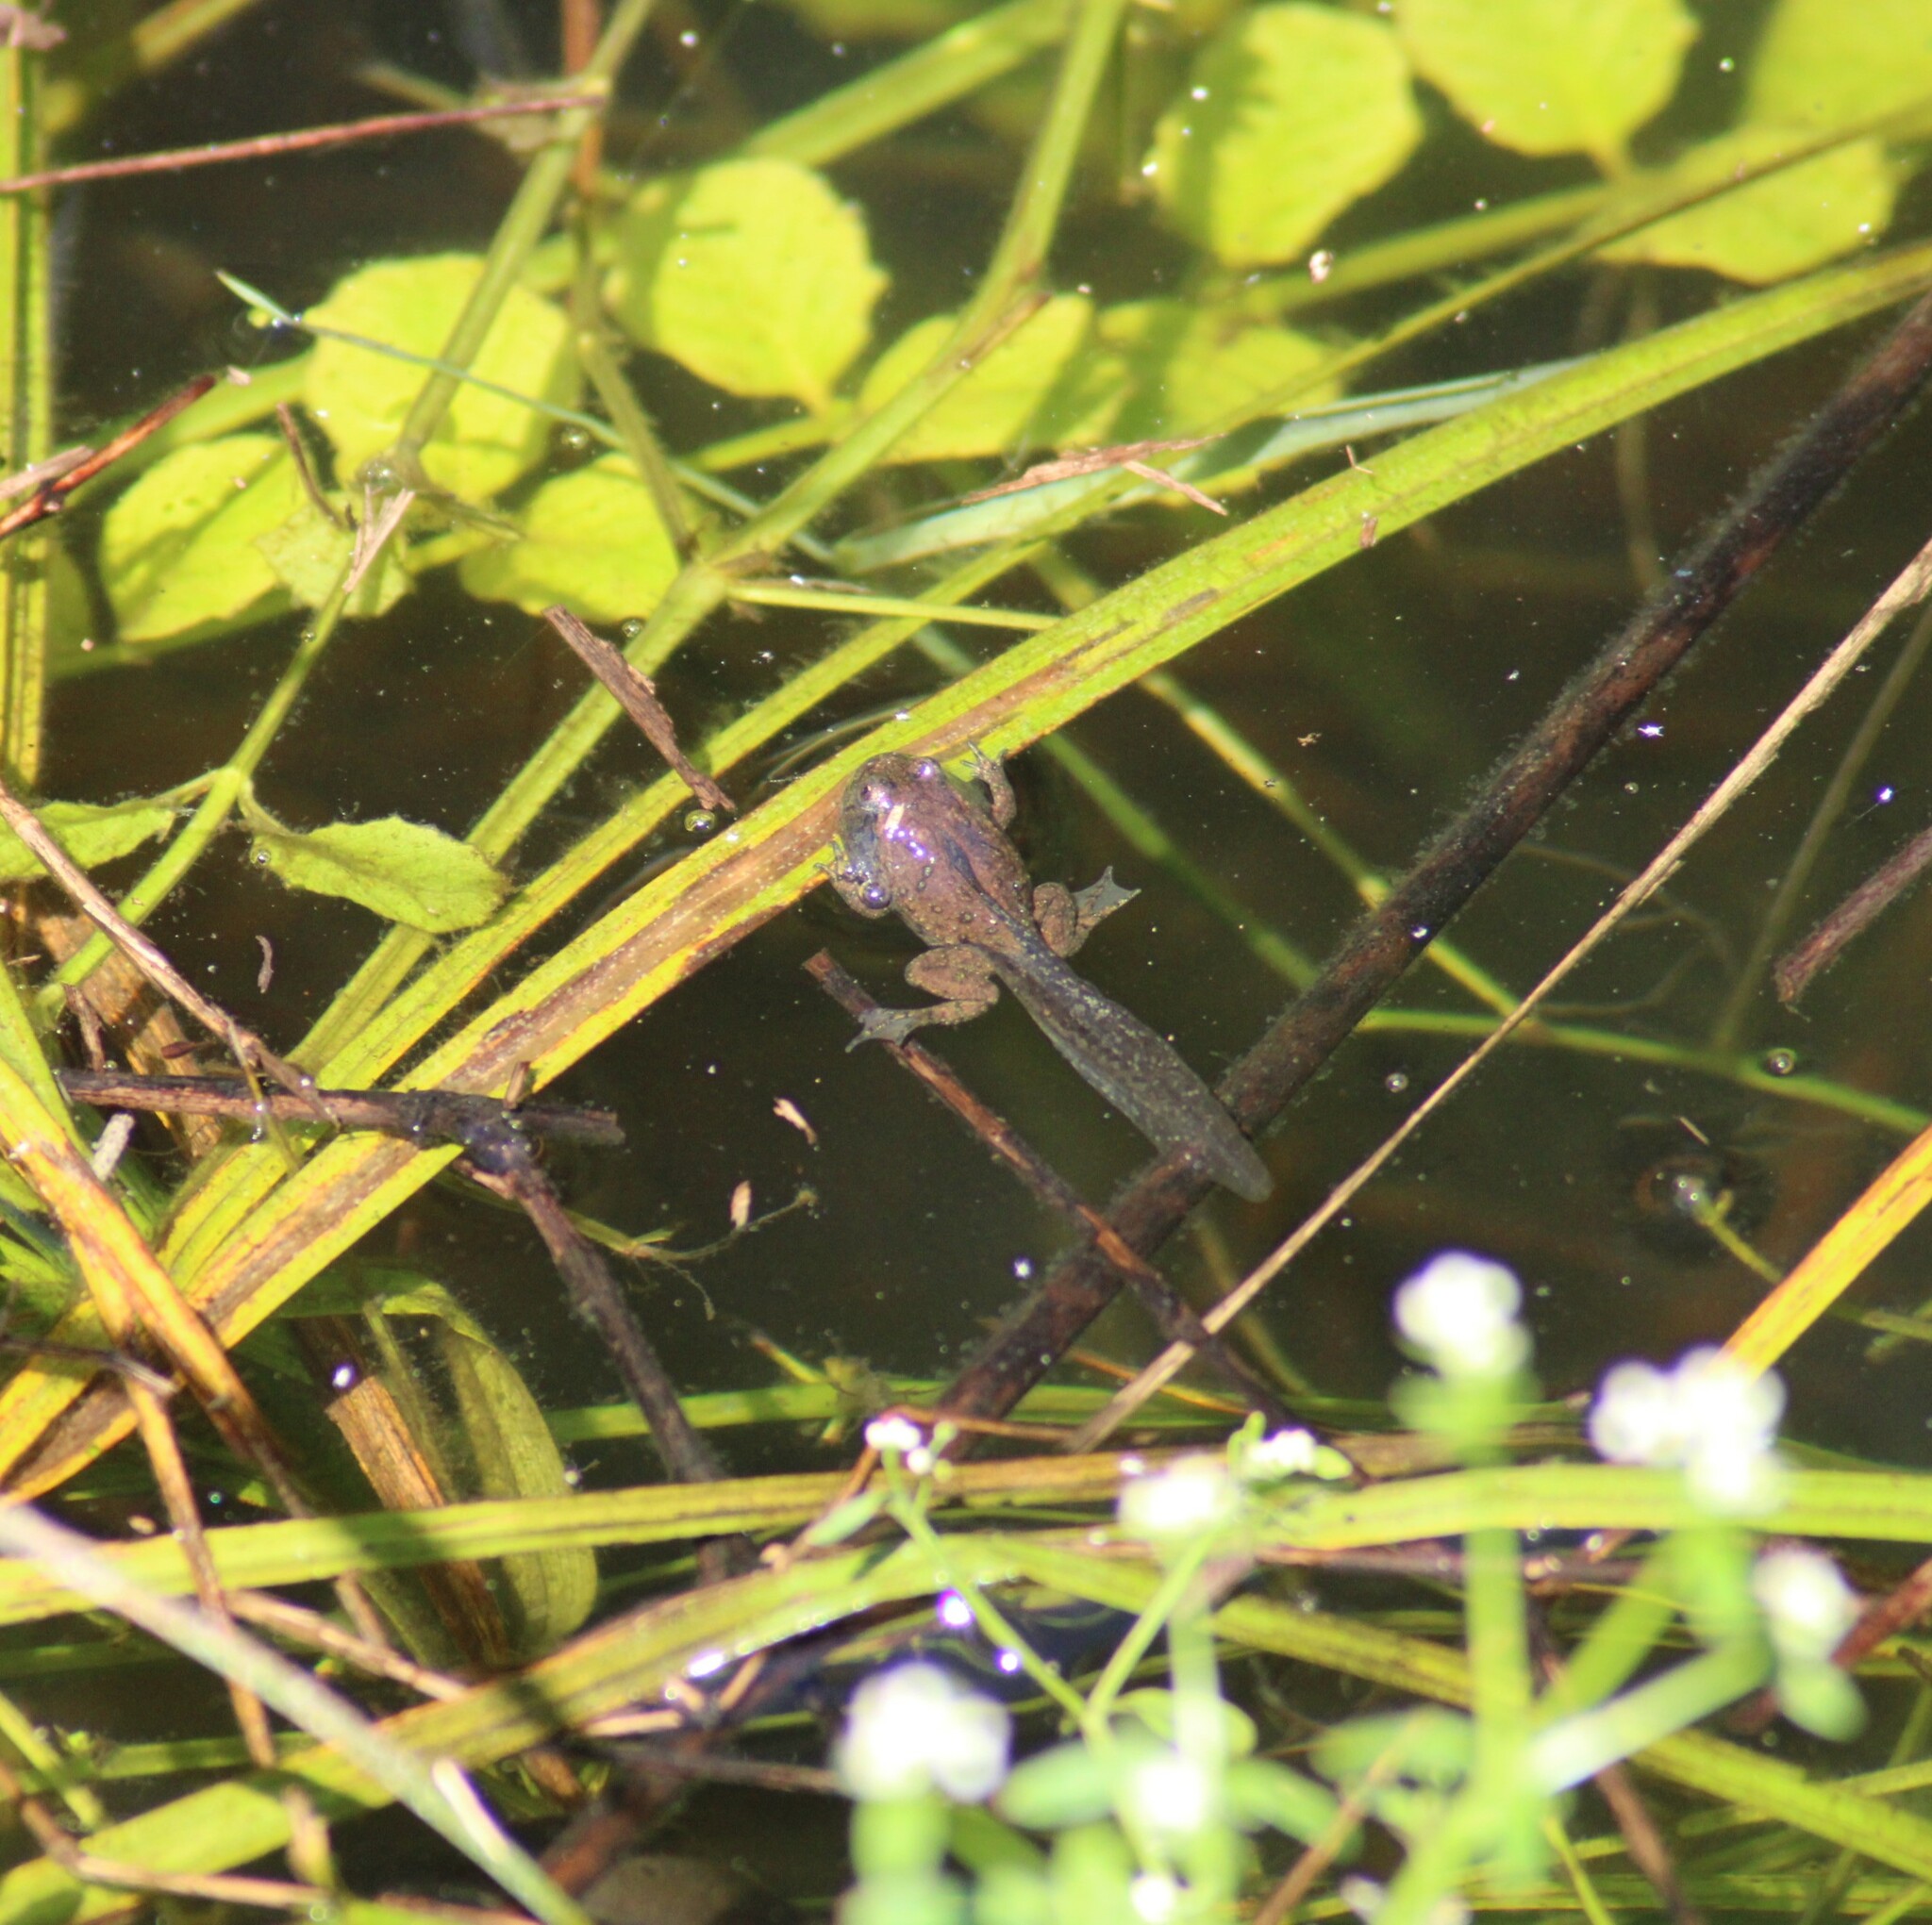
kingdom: Animalia
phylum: Chordata
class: Amphibia
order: Anura
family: Bombinatoridae
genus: Bombina
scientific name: Bombina bombina
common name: Fire-bellied toad
